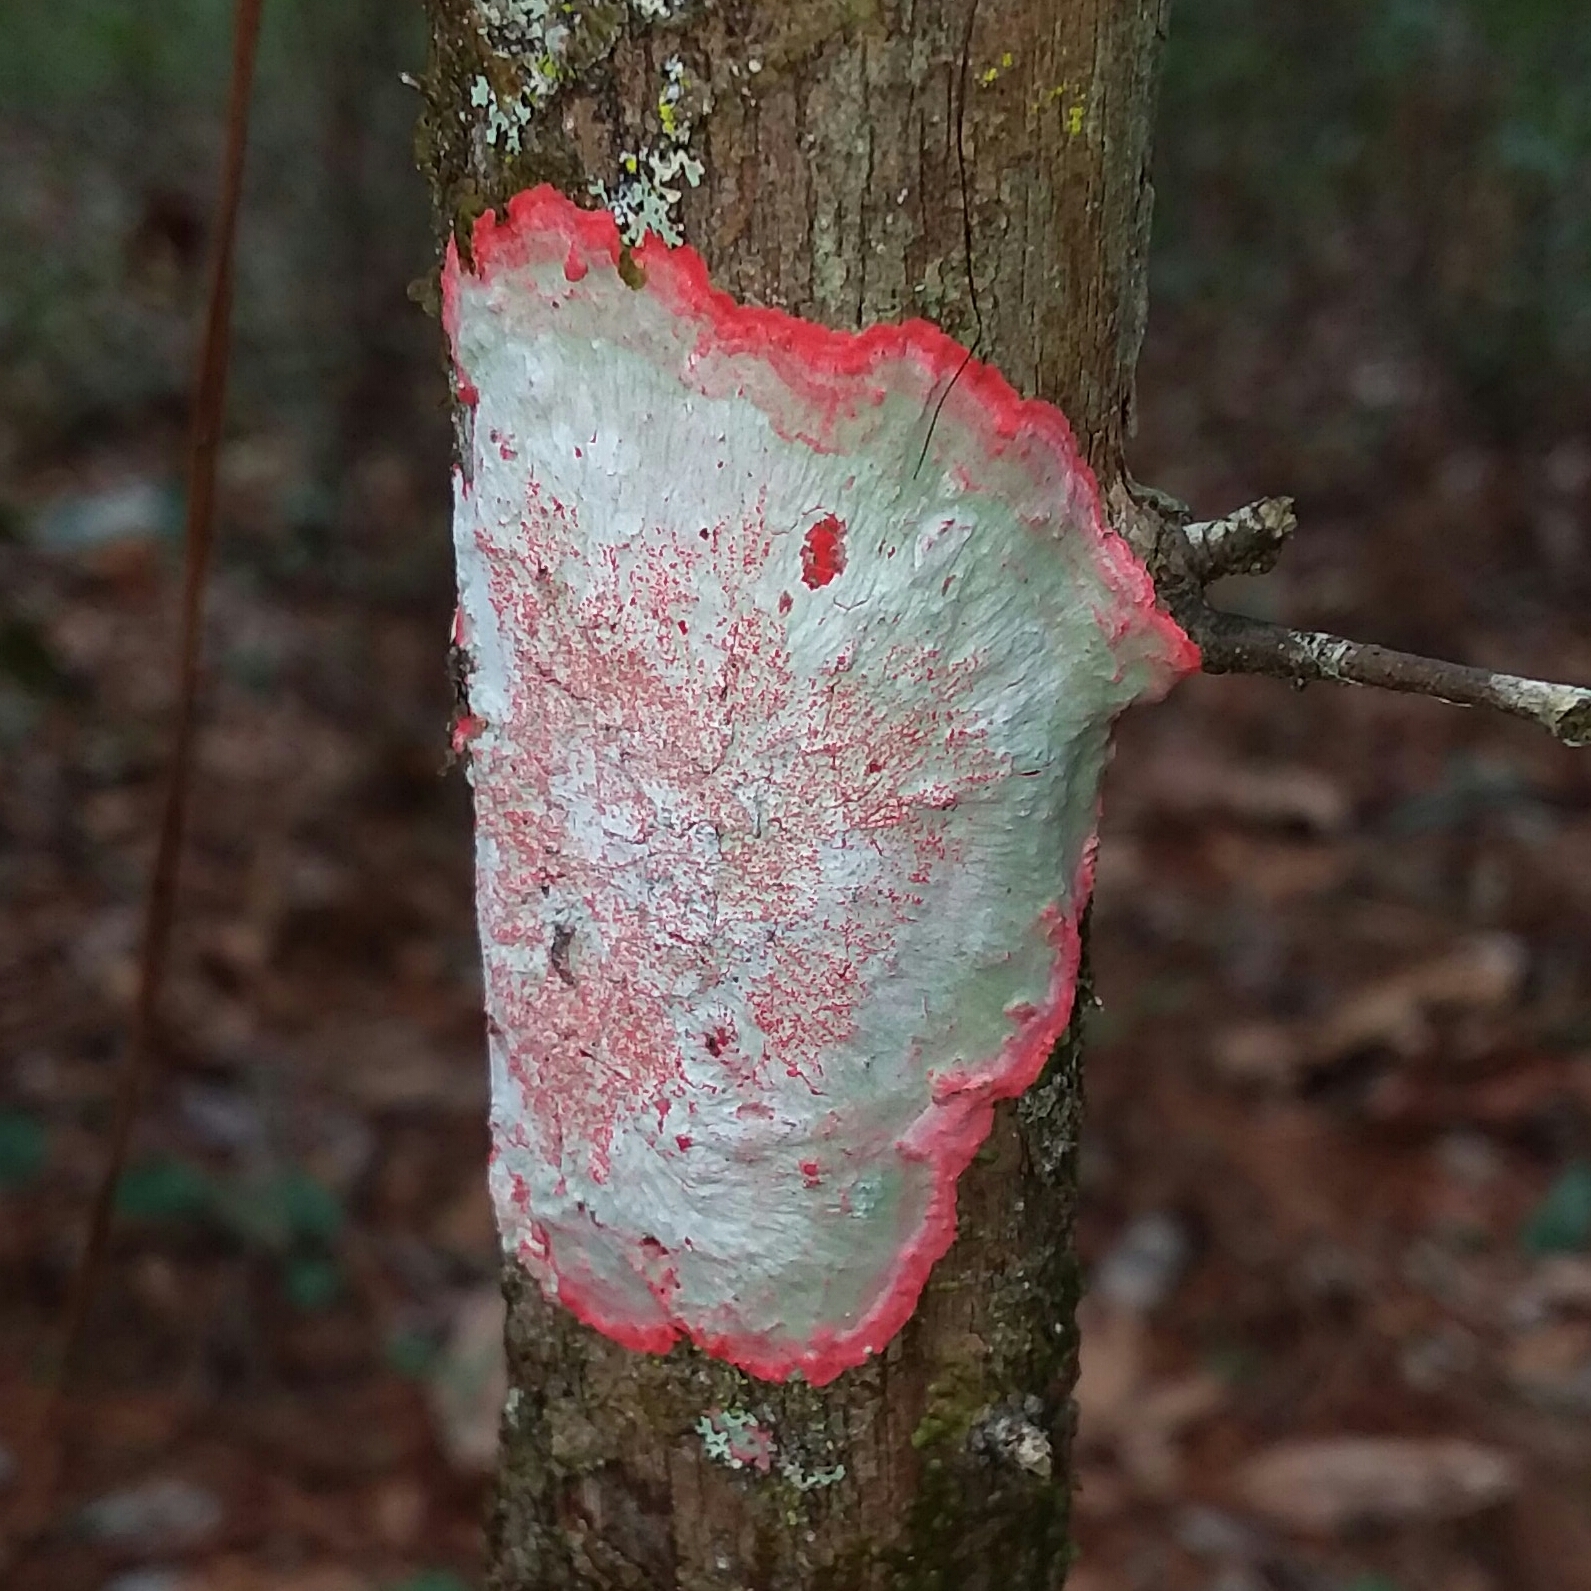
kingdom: Fungi
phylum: Ascomycota
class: Arthoniomycetes
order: Arthoniales
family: Arthoniaceae
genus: Herpothallon
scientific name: Herpothallon rubrocinctum
